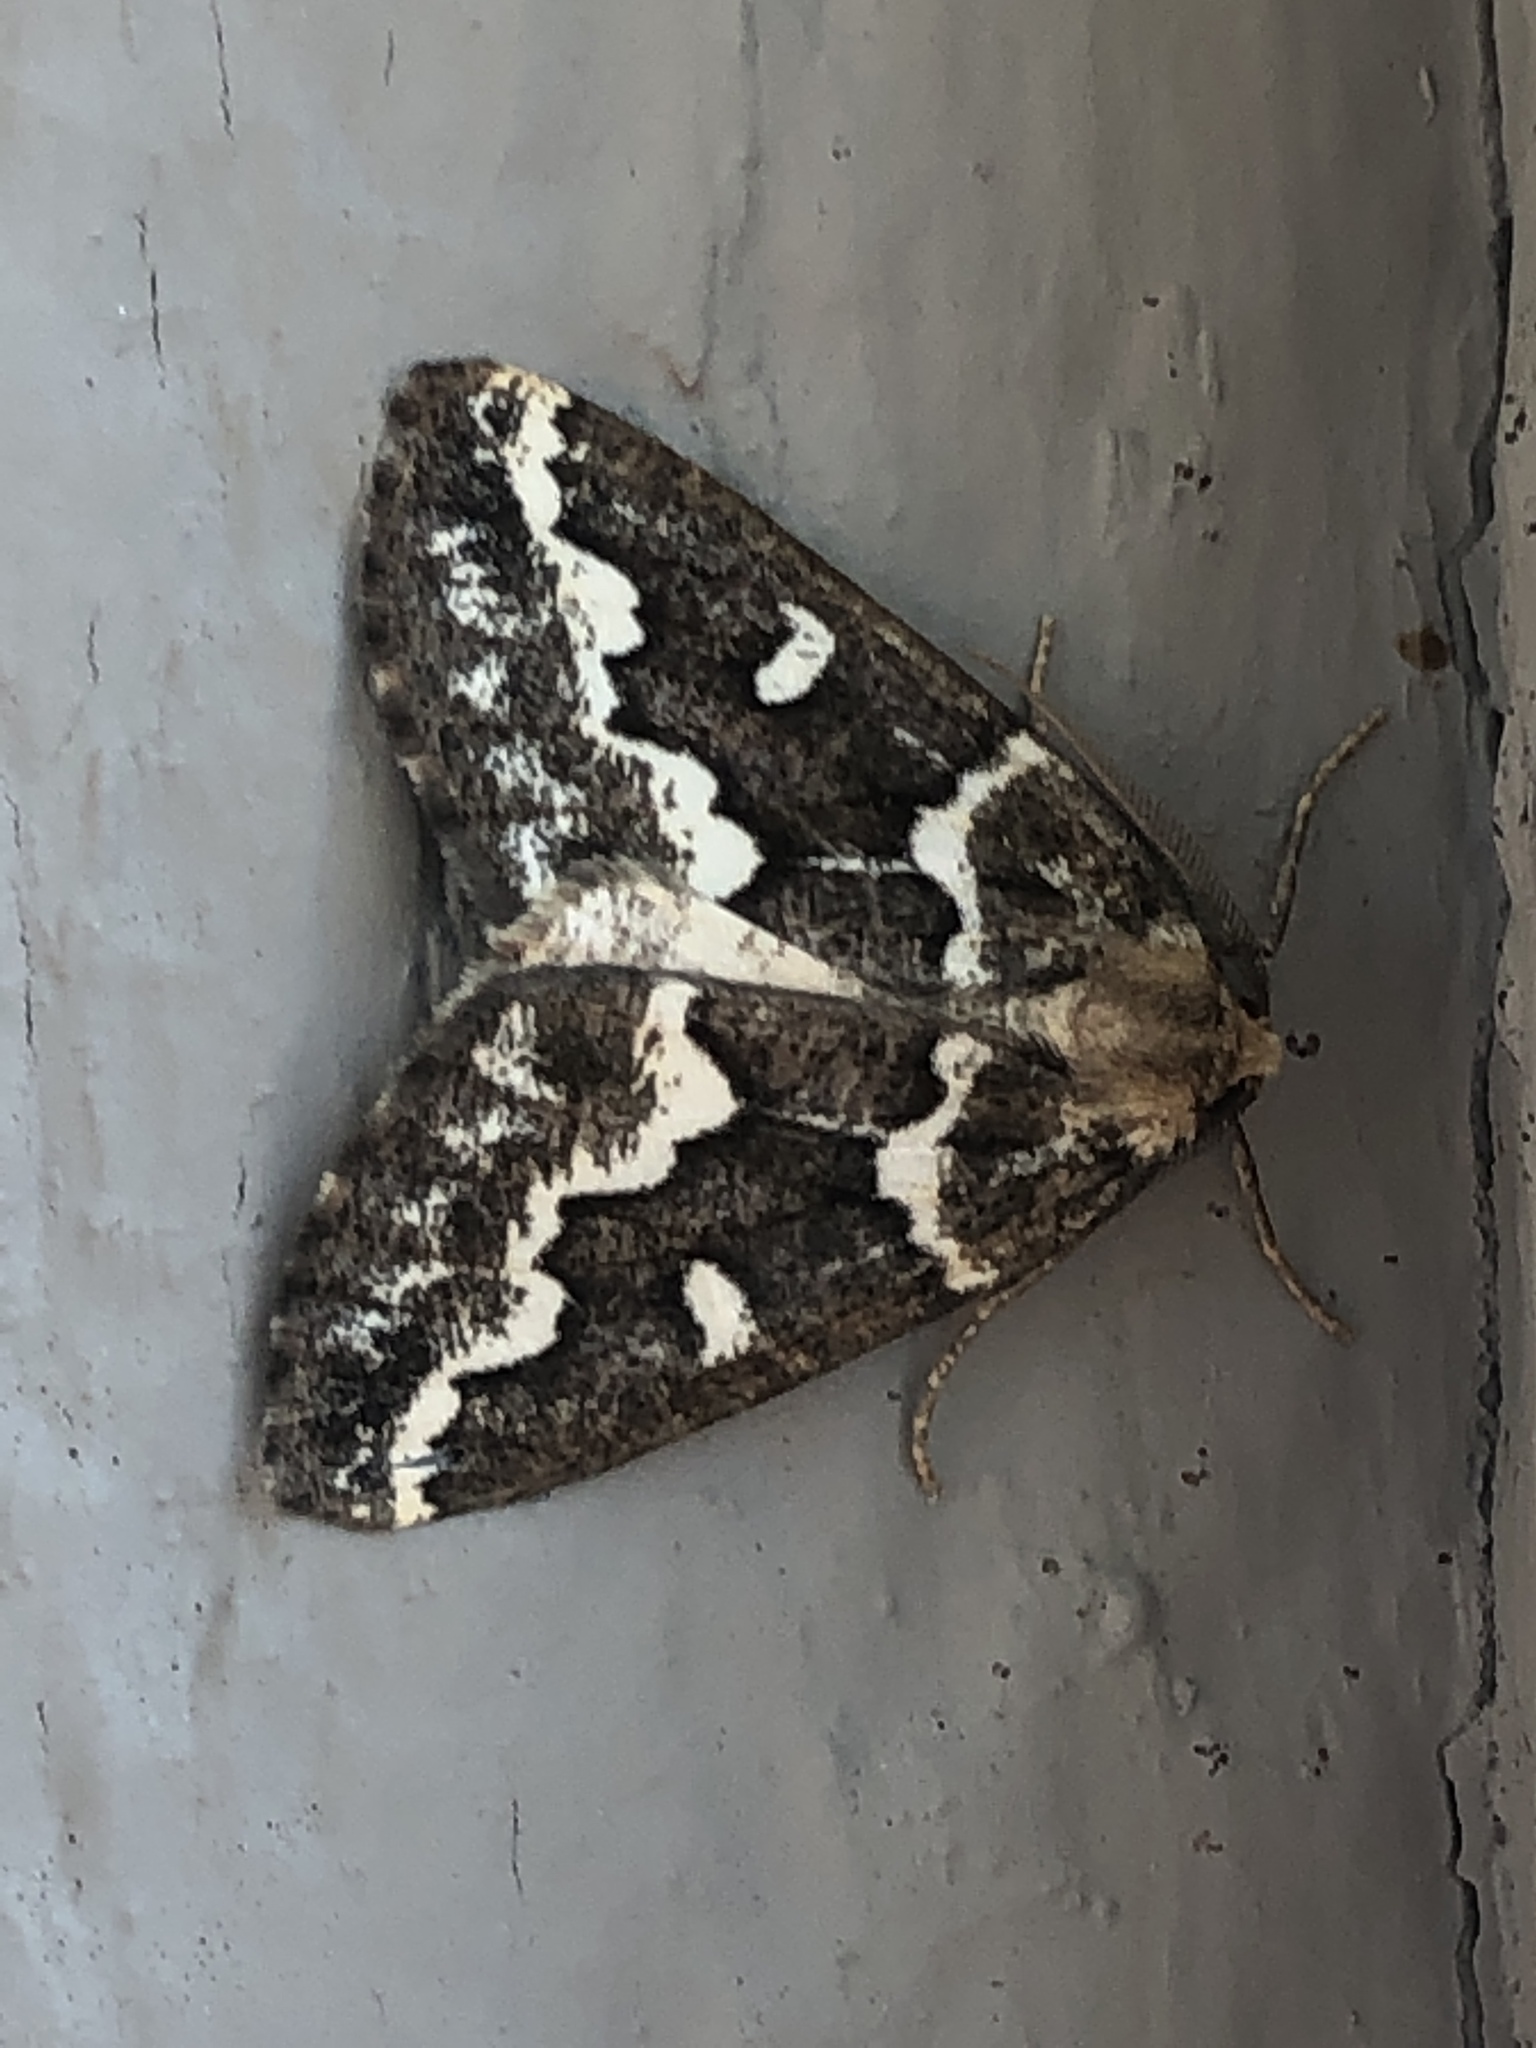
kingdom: Animalia
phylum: Arthropoda
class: Insecta
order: Lepidoptera
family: Geometridae
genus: Caripeta
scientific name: Caripeta divisata
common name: Gray spruce looper
